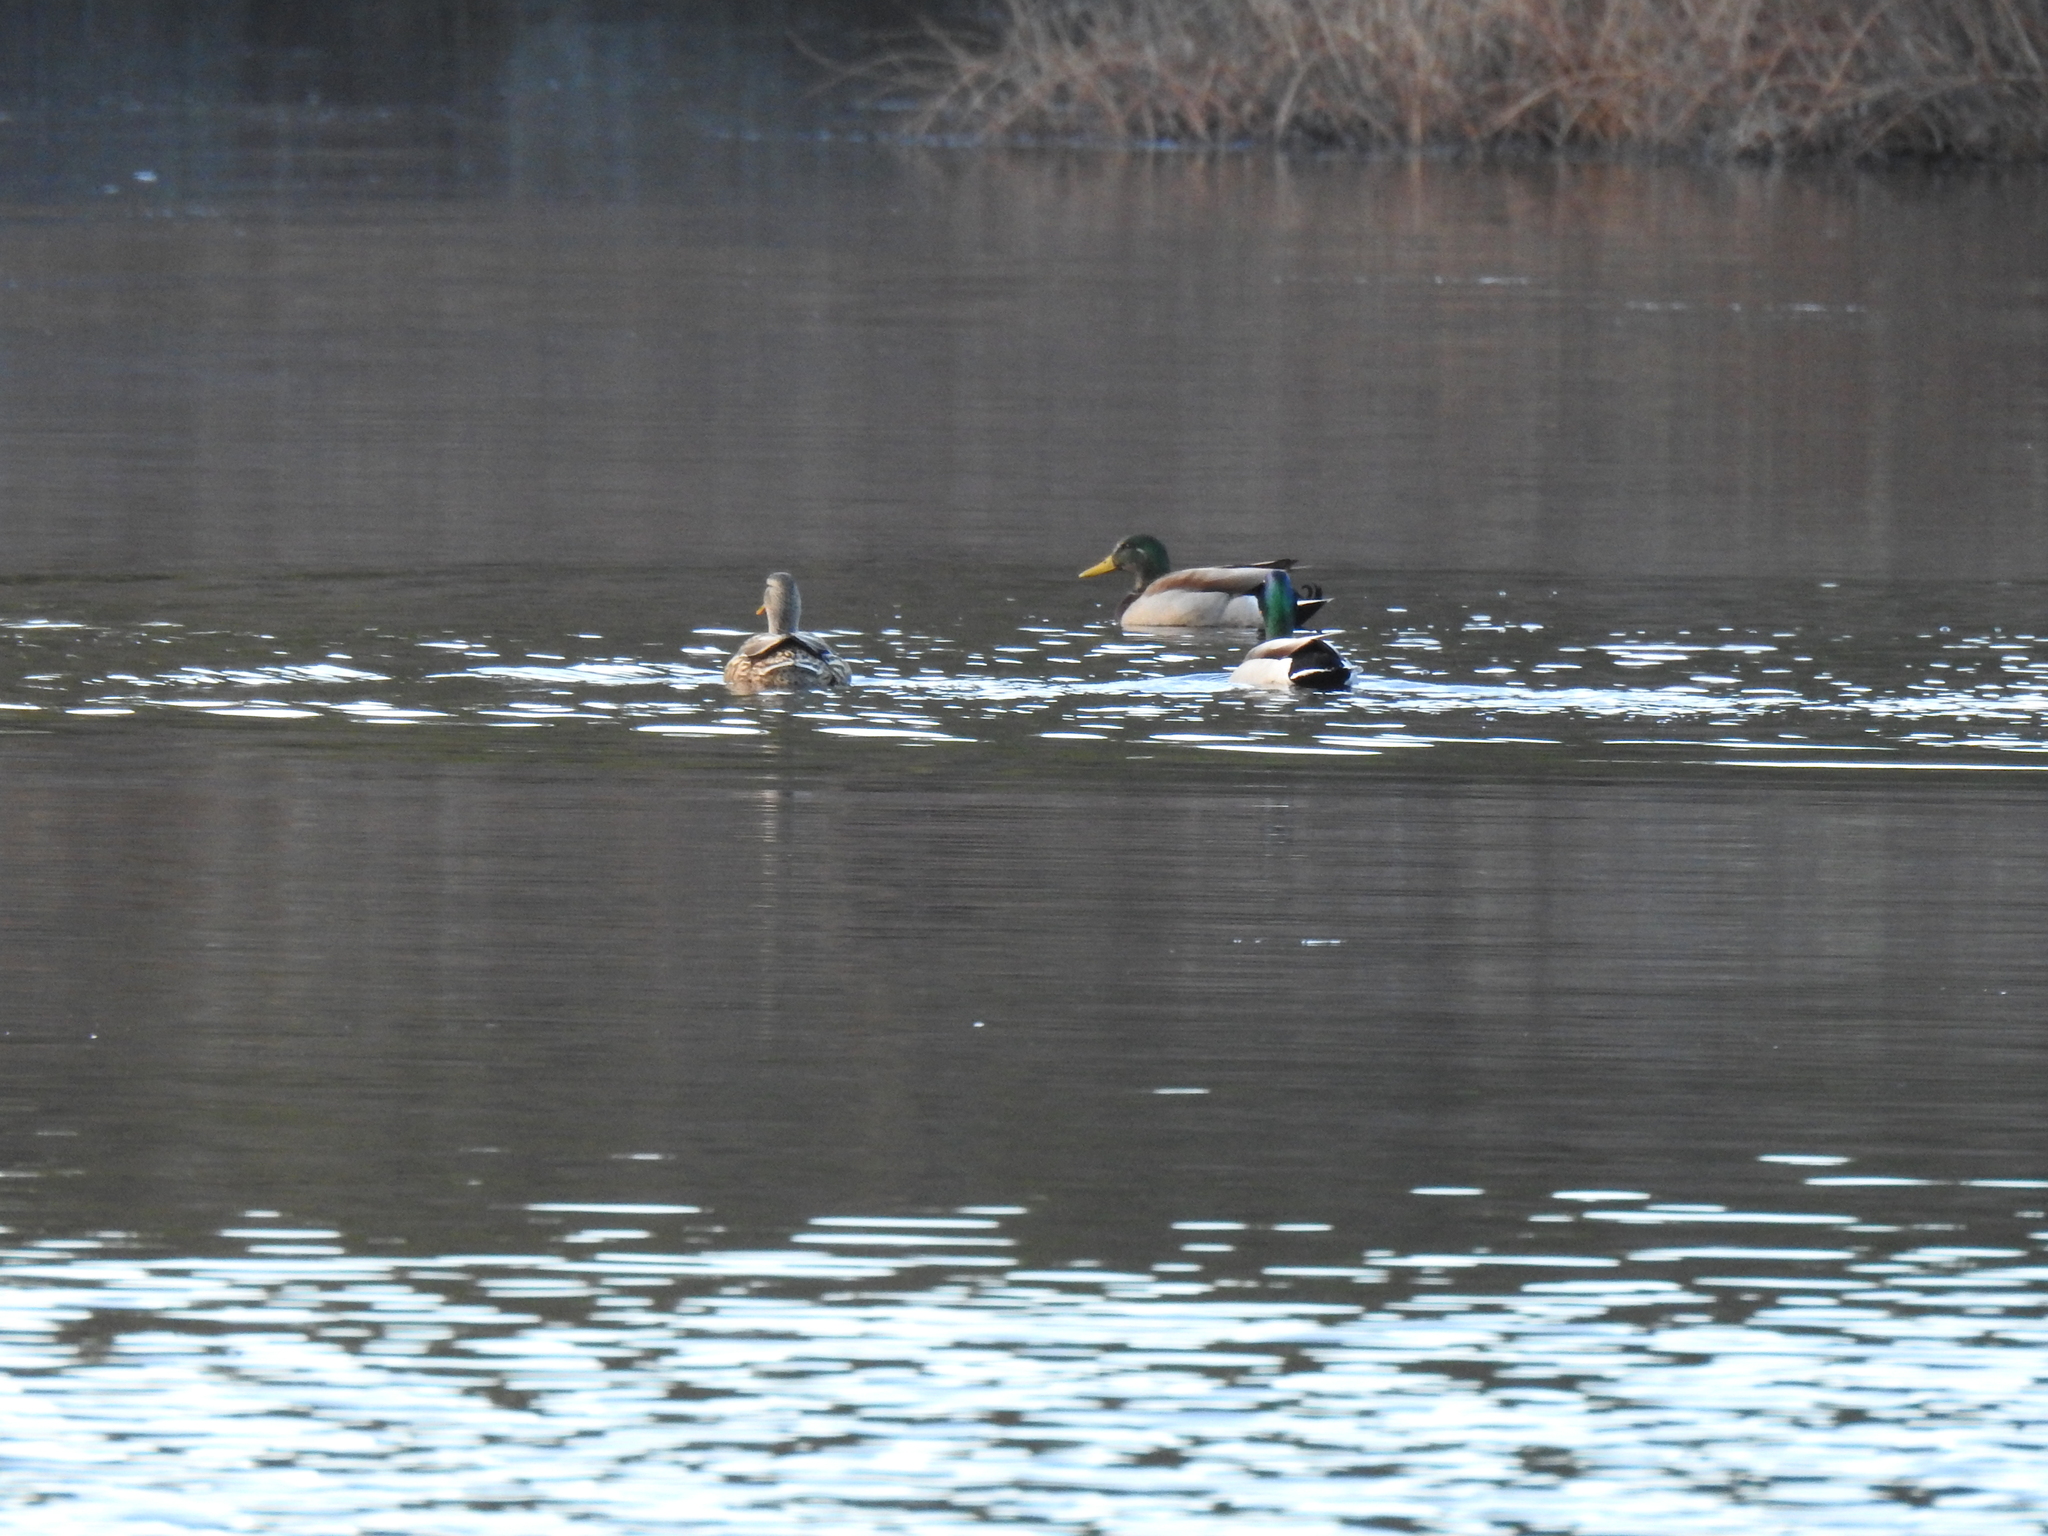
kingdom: Animalia
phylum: Chordata
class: Aves
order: Anseriformes
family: Anatidae
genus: Anas
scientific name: Anas platyrhynchos
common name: Mallard
